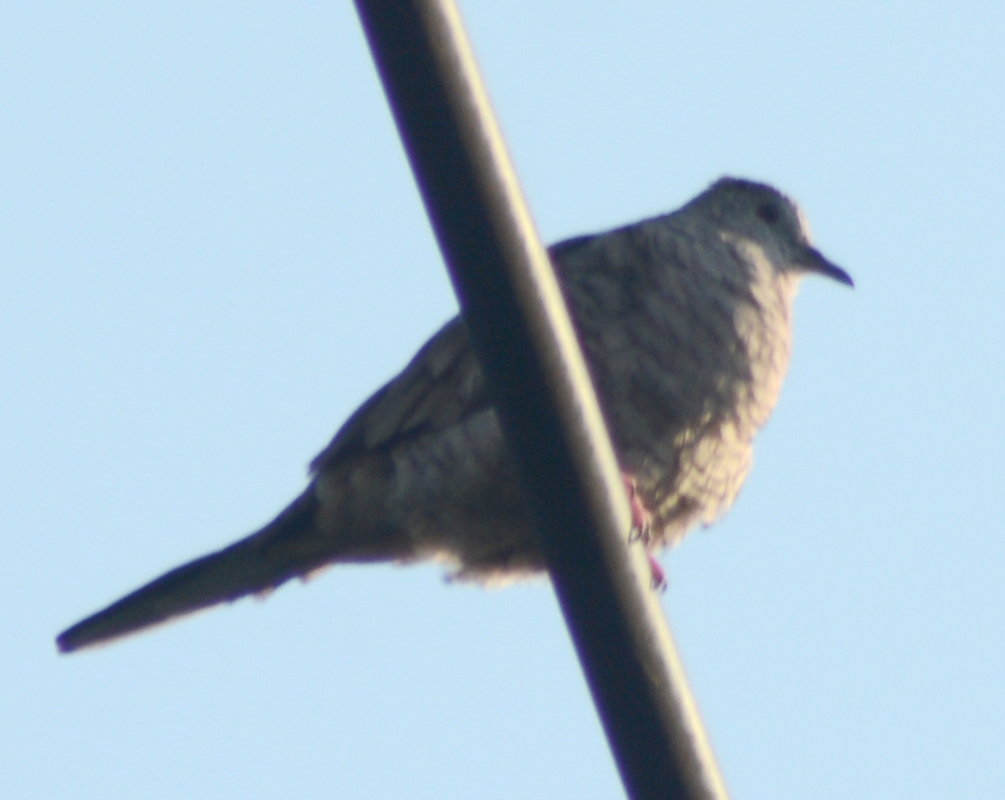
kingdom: Animalia
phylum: Chordata
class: Aves
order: Columbiformes
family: Columbidae
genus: Columbina
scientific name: Columbina inca
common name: Inca dove
